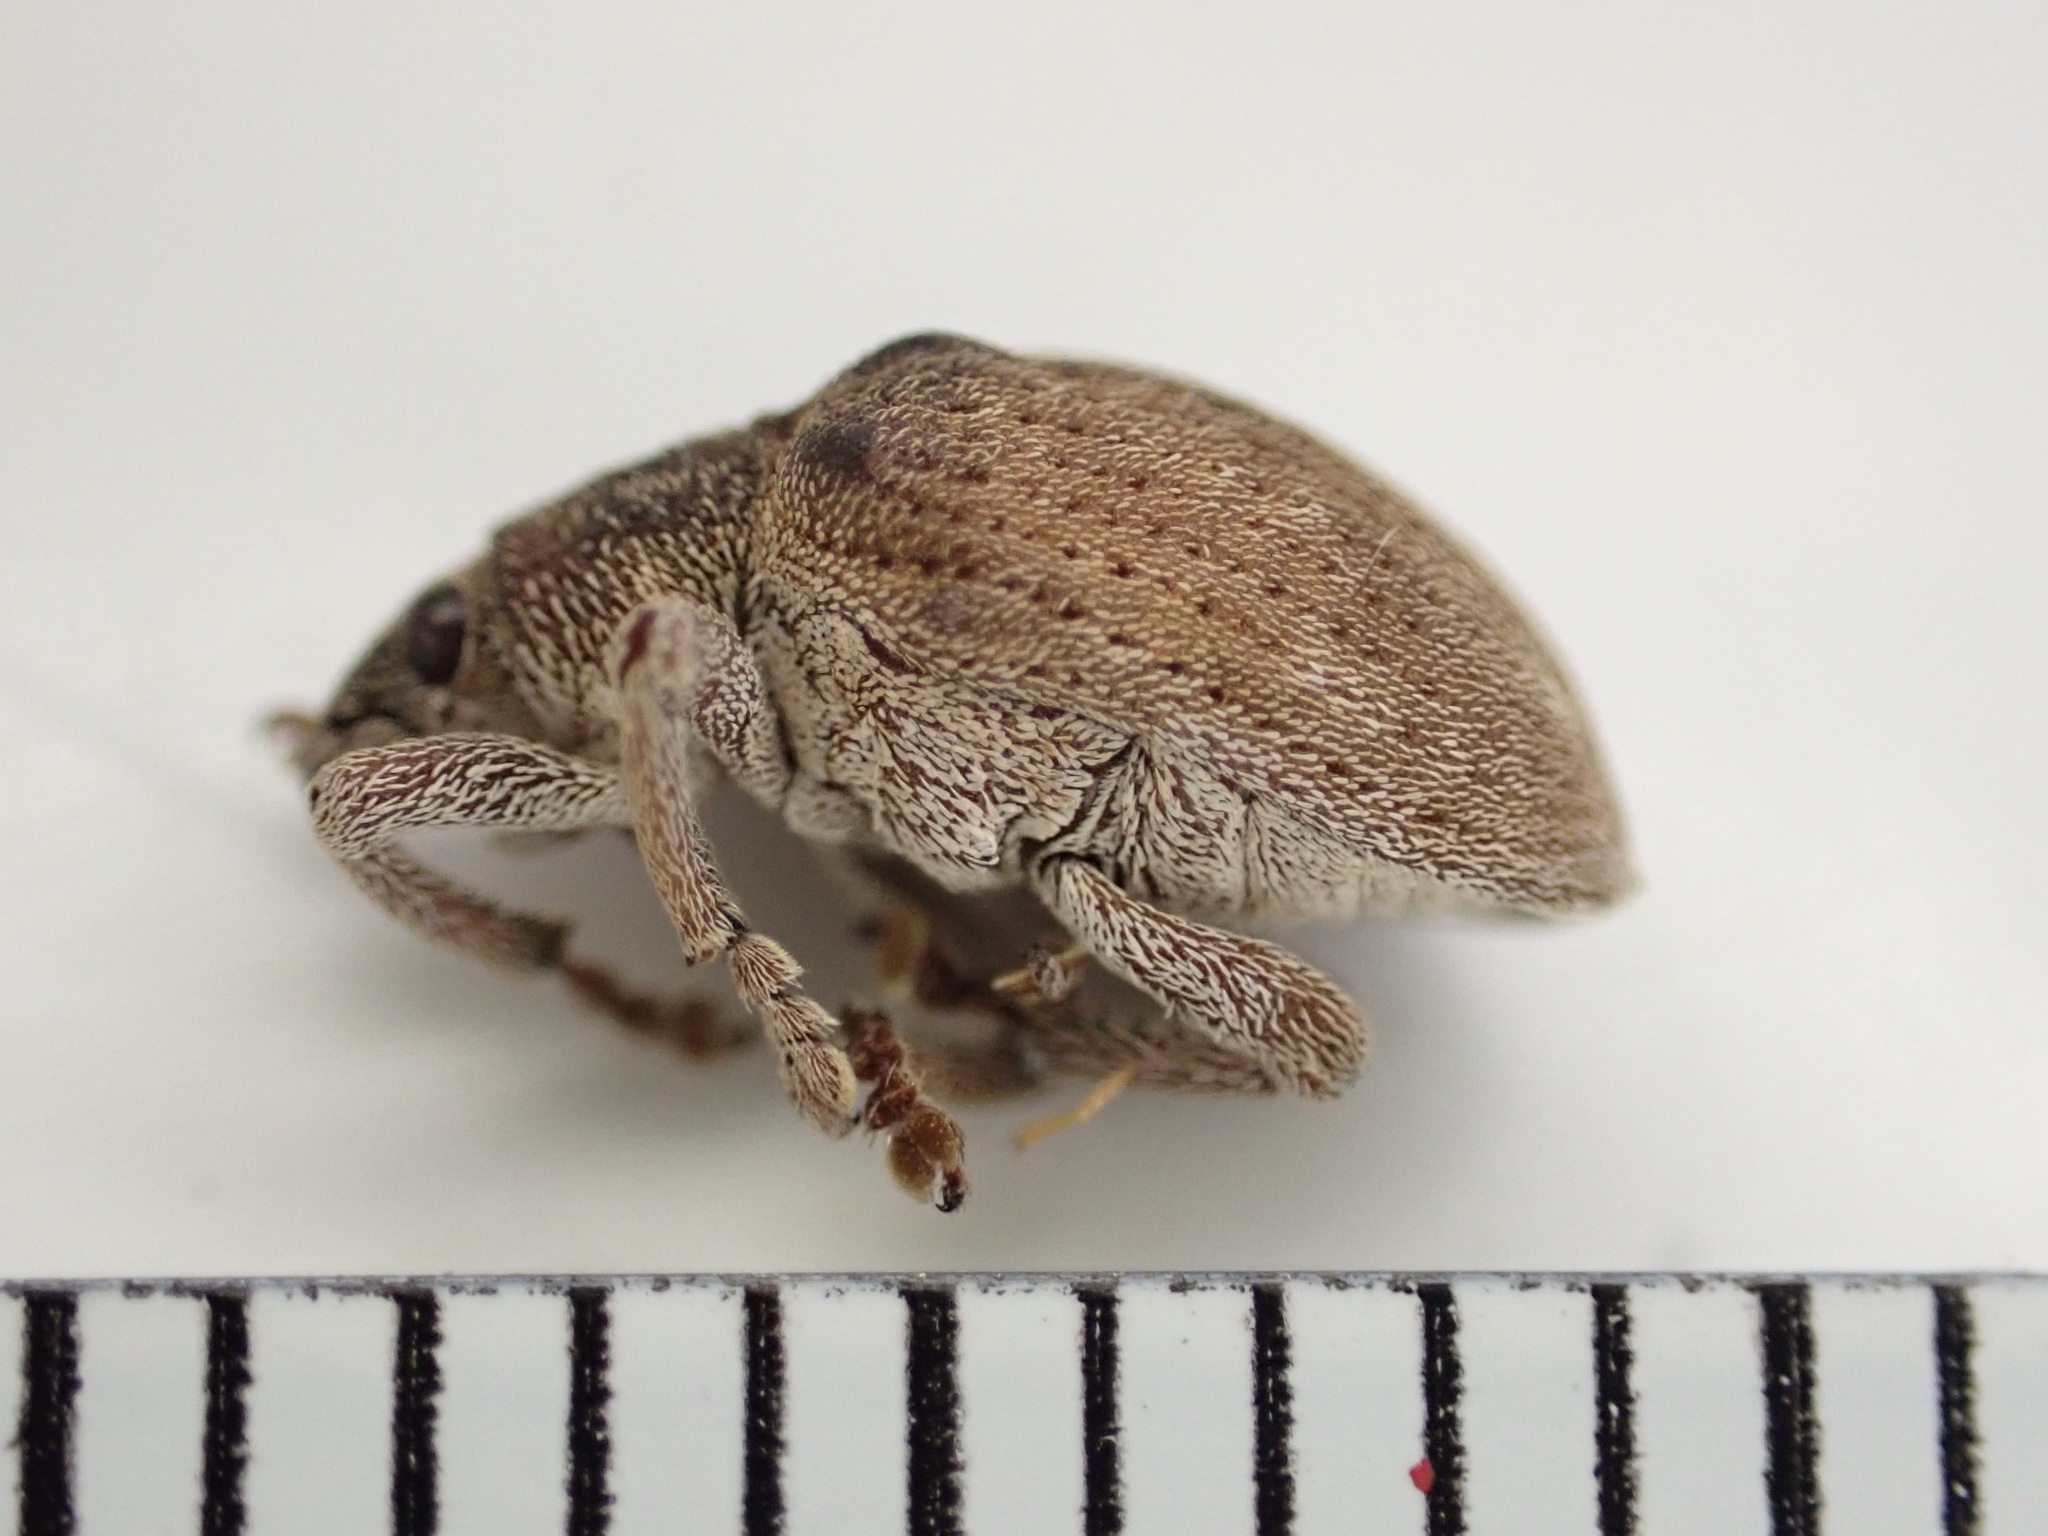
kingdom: Animalia
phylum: Arthropoda
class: Insecta
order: Coleoptera
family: Curculionidae
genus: Gonipterus
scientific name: Gonipterus platensis
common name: Eucalyptus snout beetle
